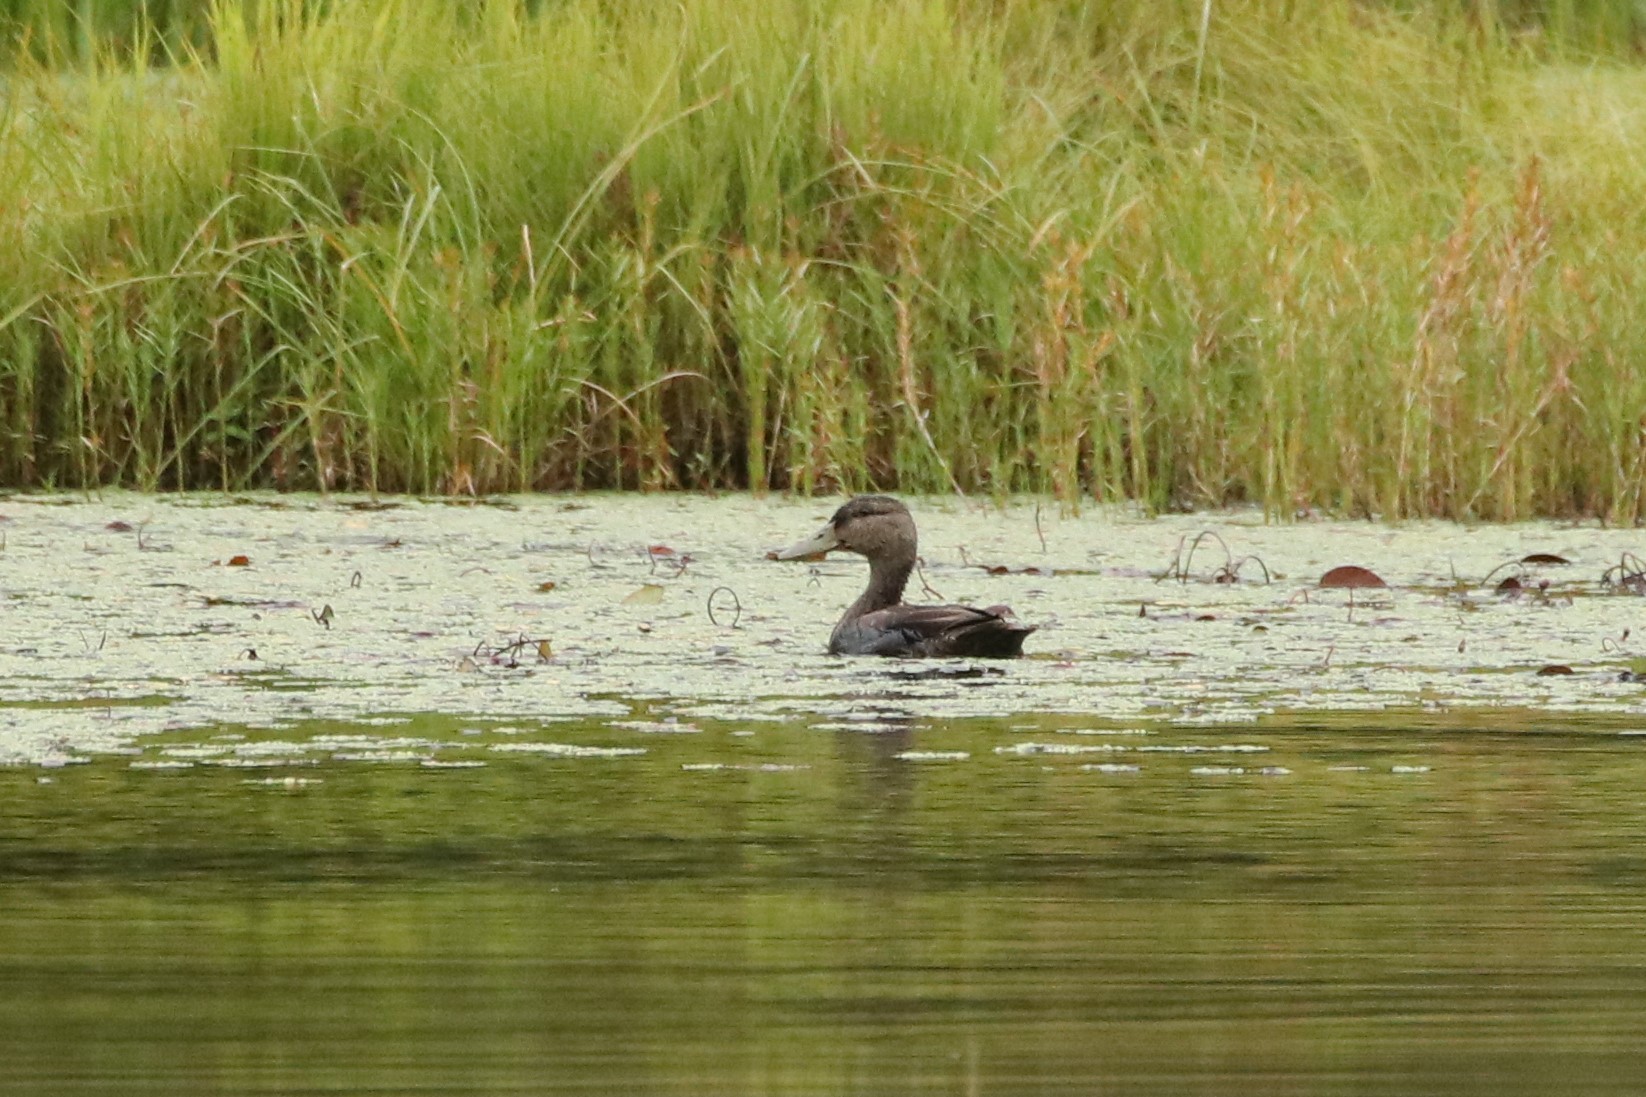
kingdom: Animalia
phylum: Chordata
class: Aves
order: Anseriformes
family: Anatidae
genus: Anas
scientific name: Anas rubripes
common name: American black duck
